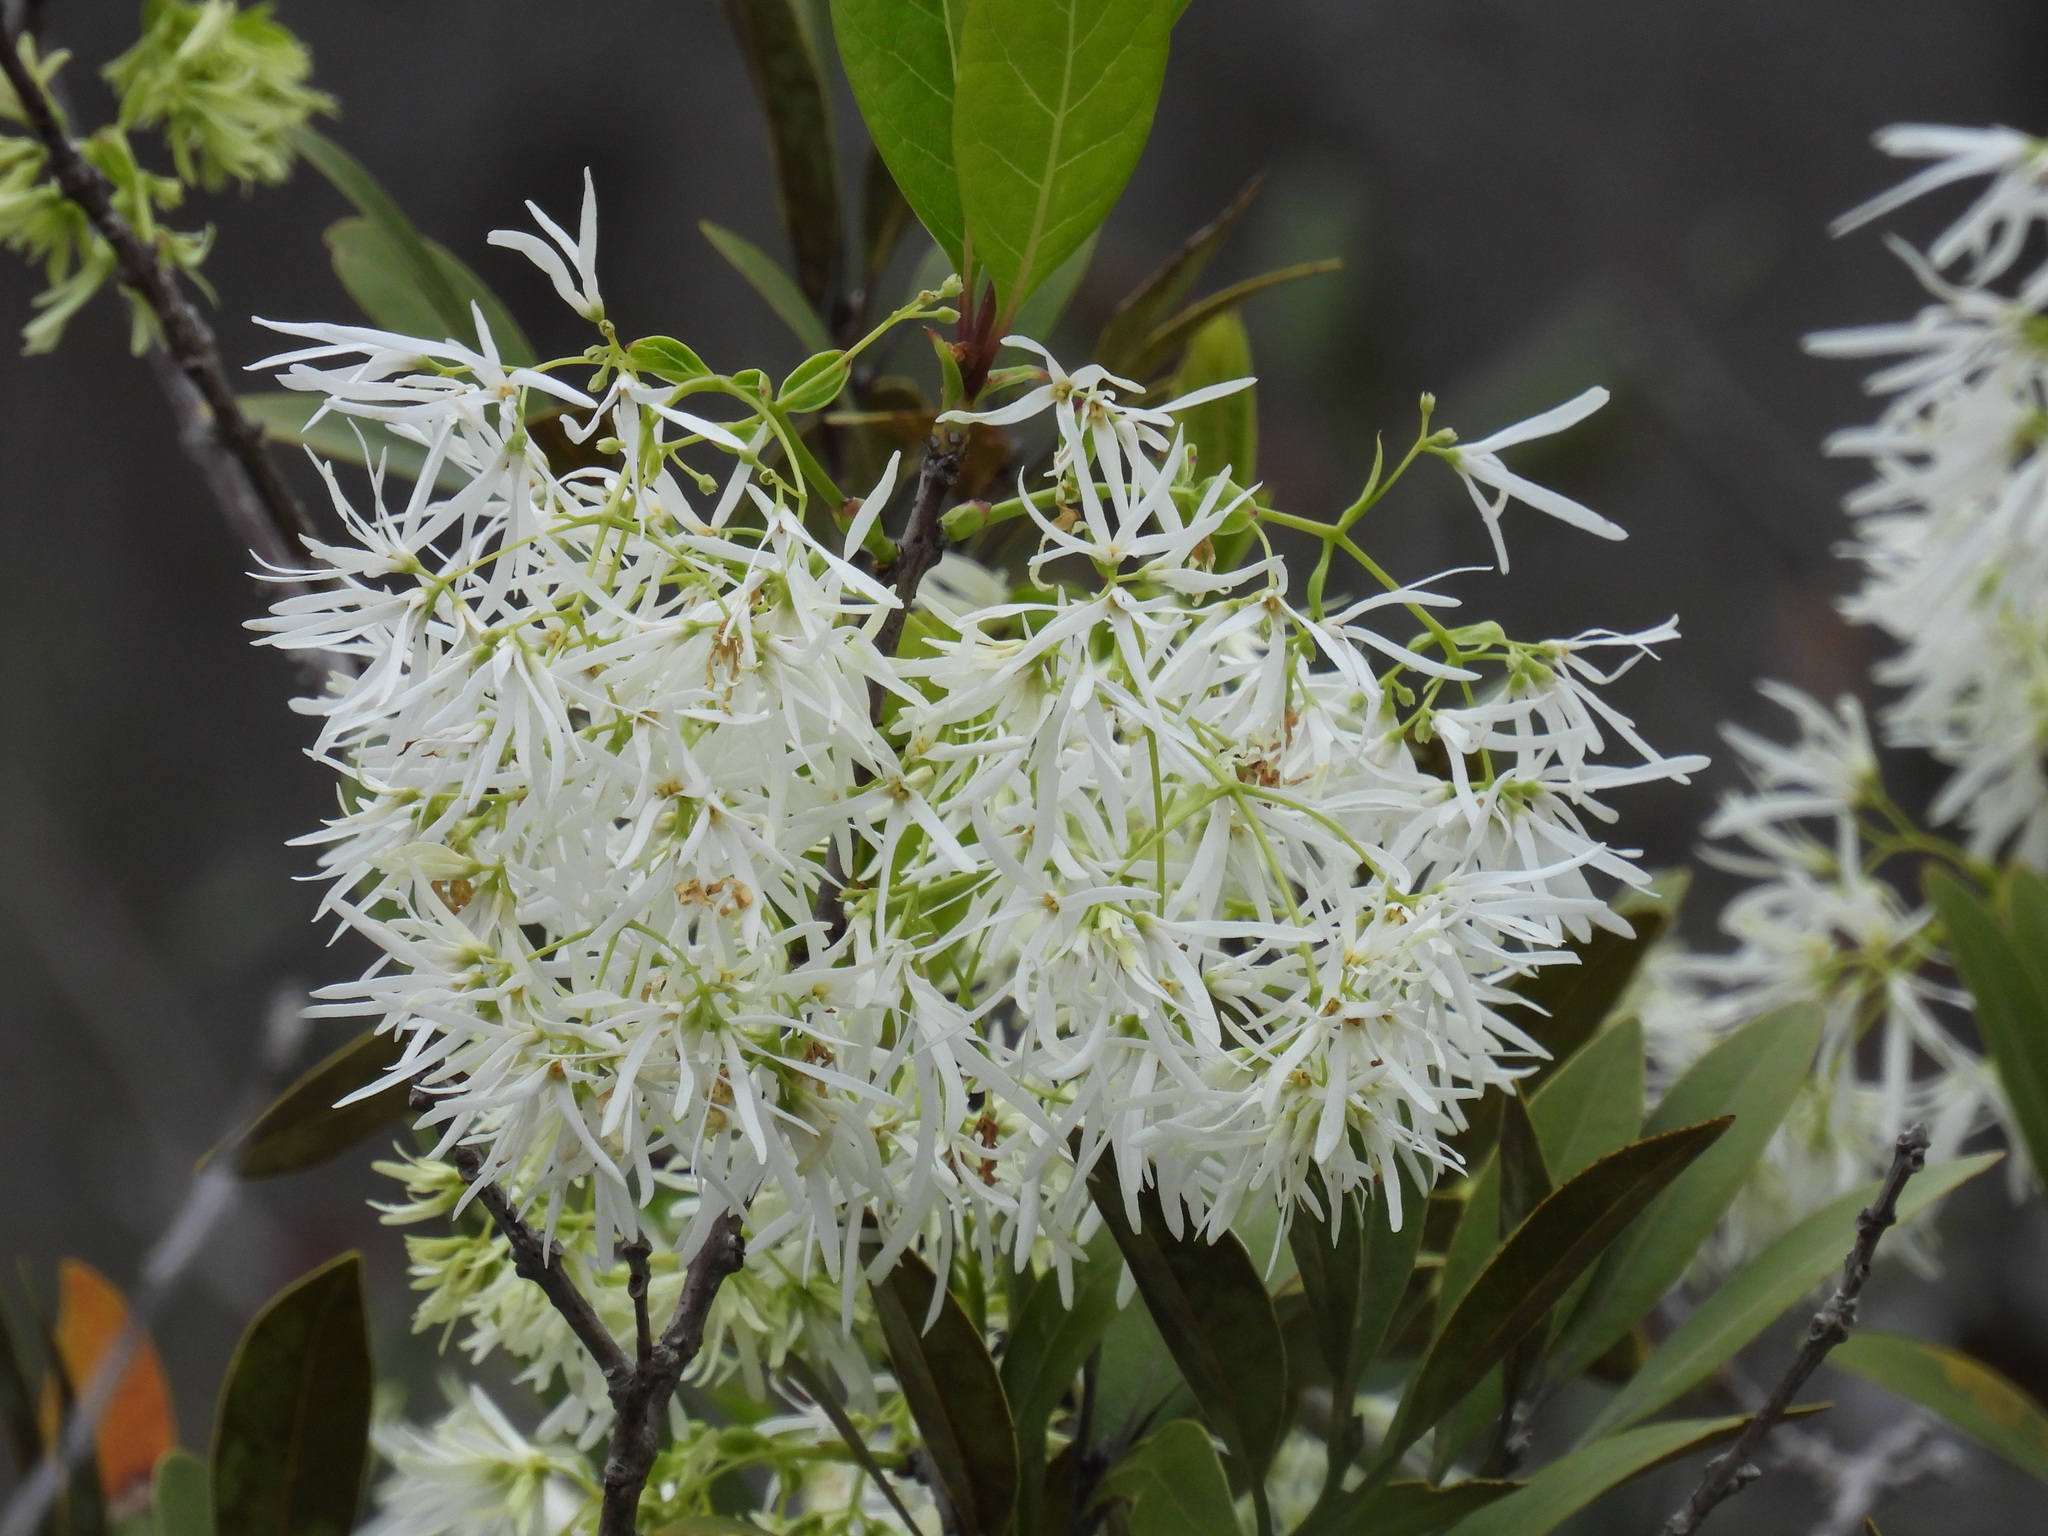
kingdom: Plantae
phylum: Tracheophyta
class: Magnoliopsida
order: Lamiales
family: Oleaceae
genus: Chionanthus
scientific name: Chionanthus pygmaeus
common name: Pygmy fringetree
